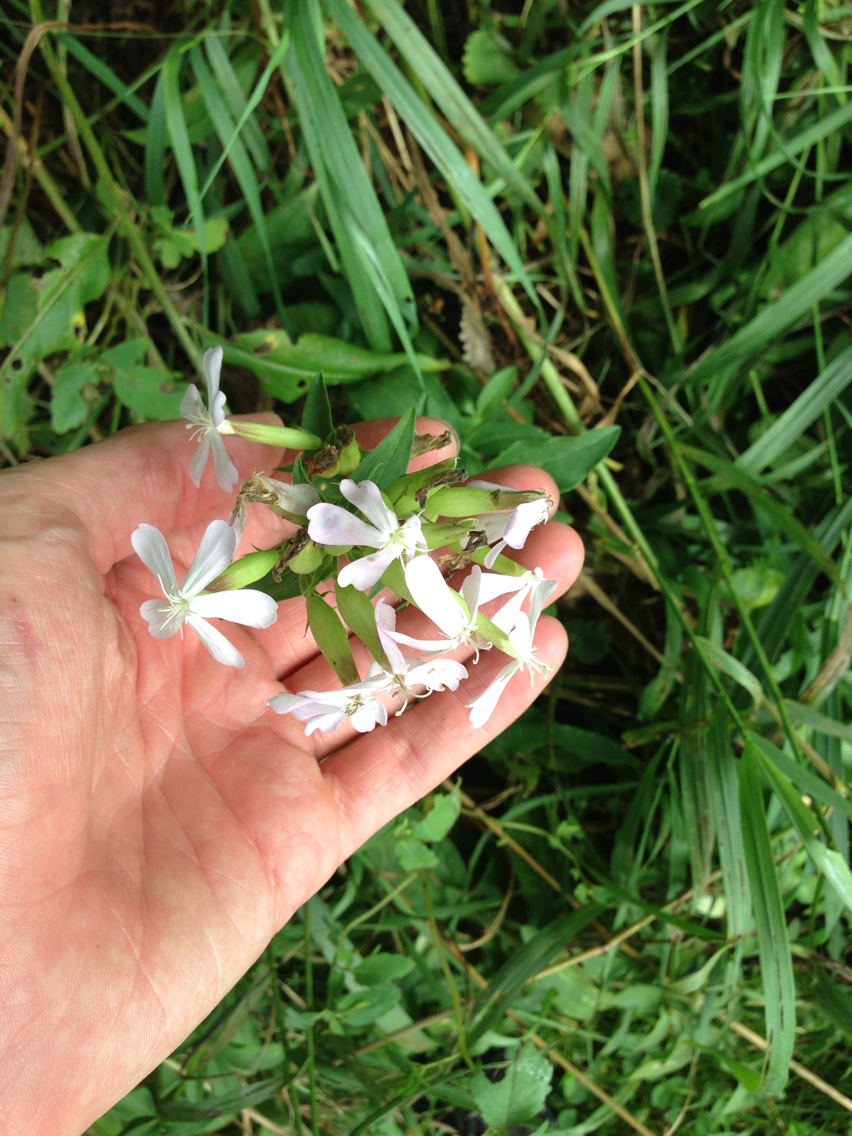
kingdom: Plantae
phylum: Tracheophyta
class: Magnoliopsida
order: Caryophyllales
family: Caryophyllaceae
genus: Saponaria
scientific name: Saponaria officinalis
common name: Soapwort
